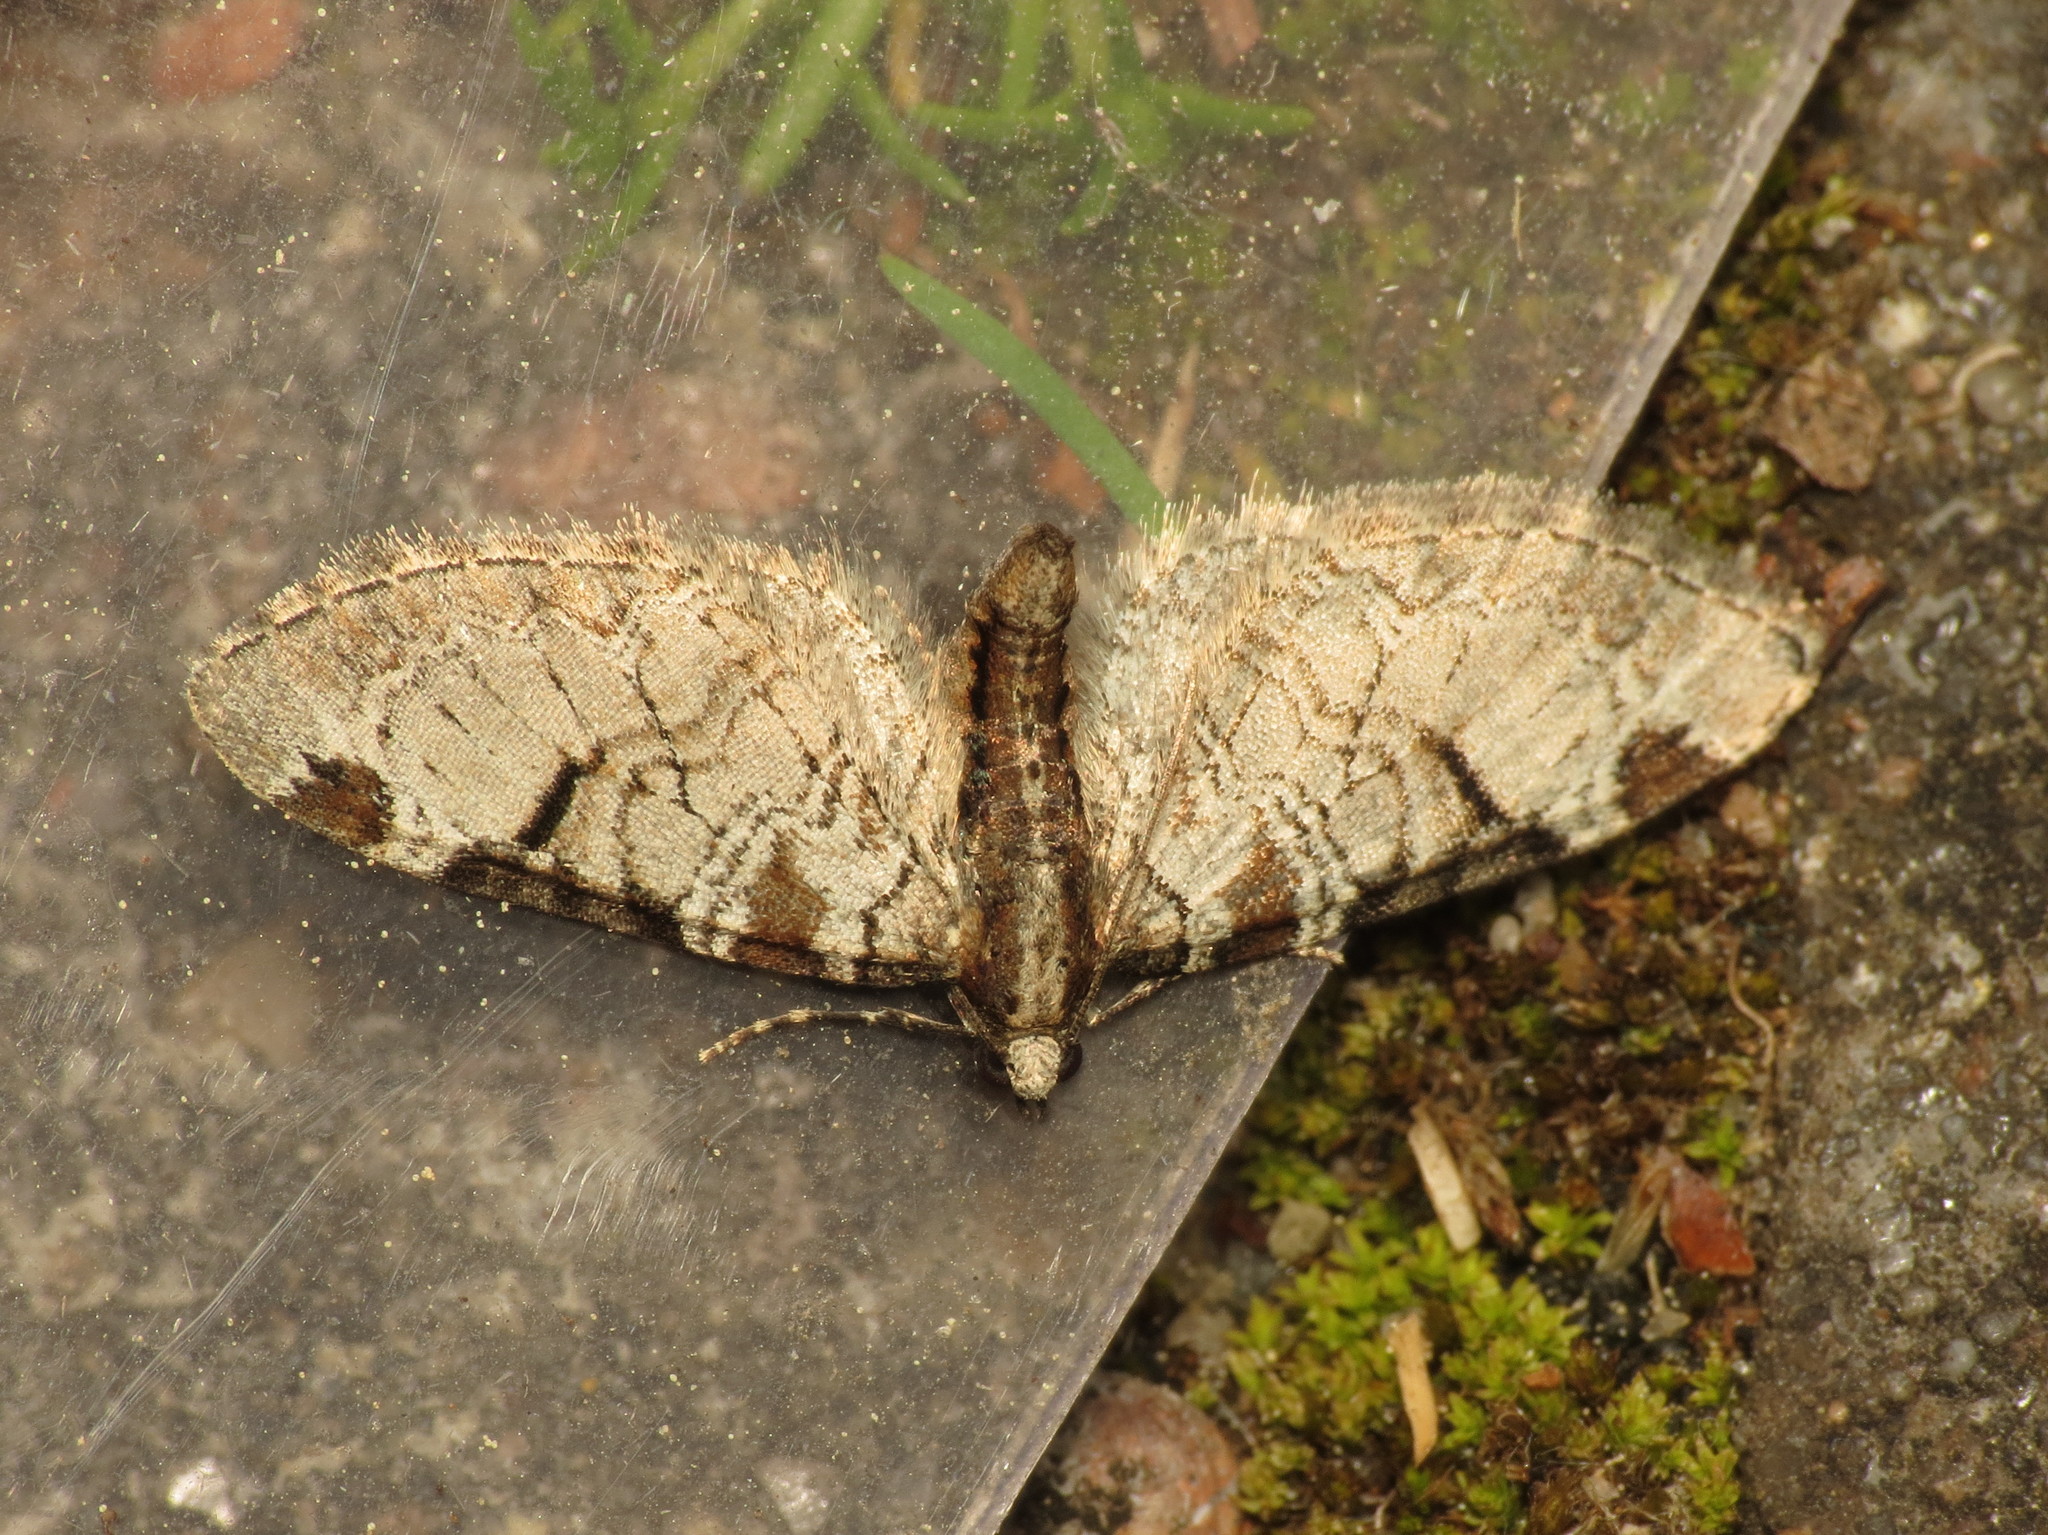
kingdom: Animalia
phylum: Arthropoda
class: Insecta
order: Lepidoptera
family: Geometridae
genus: Eupithecia
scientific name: Eupithecia insigniata
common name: Pinion-spotted pug
